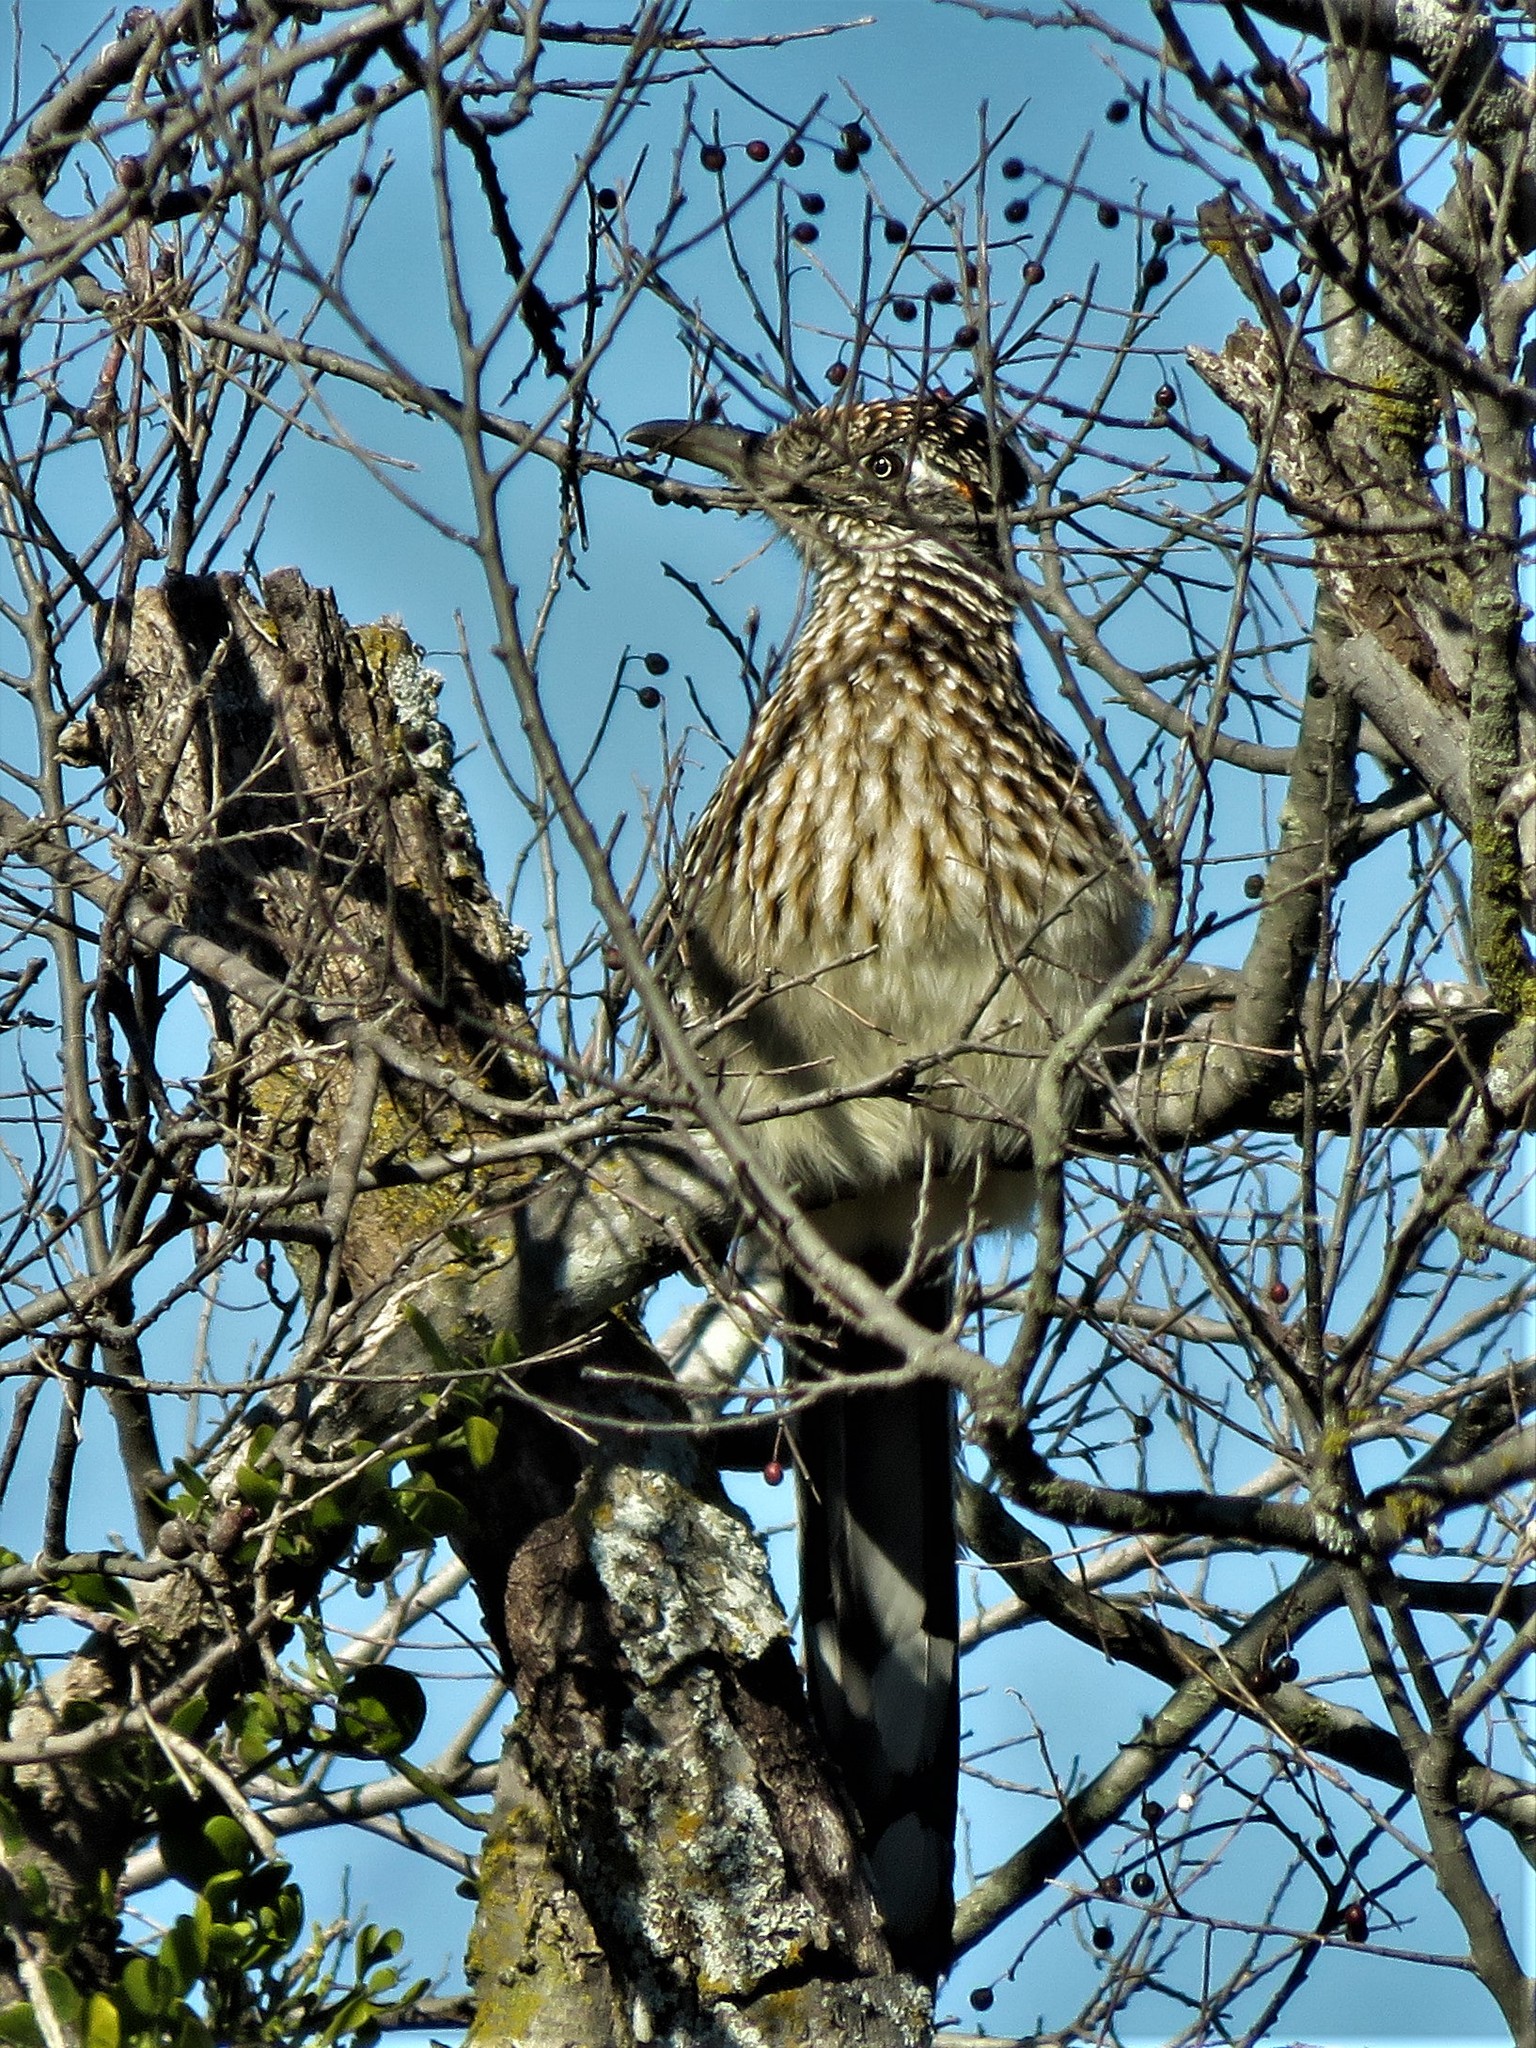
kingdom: Animalia
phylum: Chordata
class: Aves
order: Cuculiformes
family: Cuculidae
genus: Geococcyx
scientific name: Geococcyx californianus
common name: Greater roadrunner
